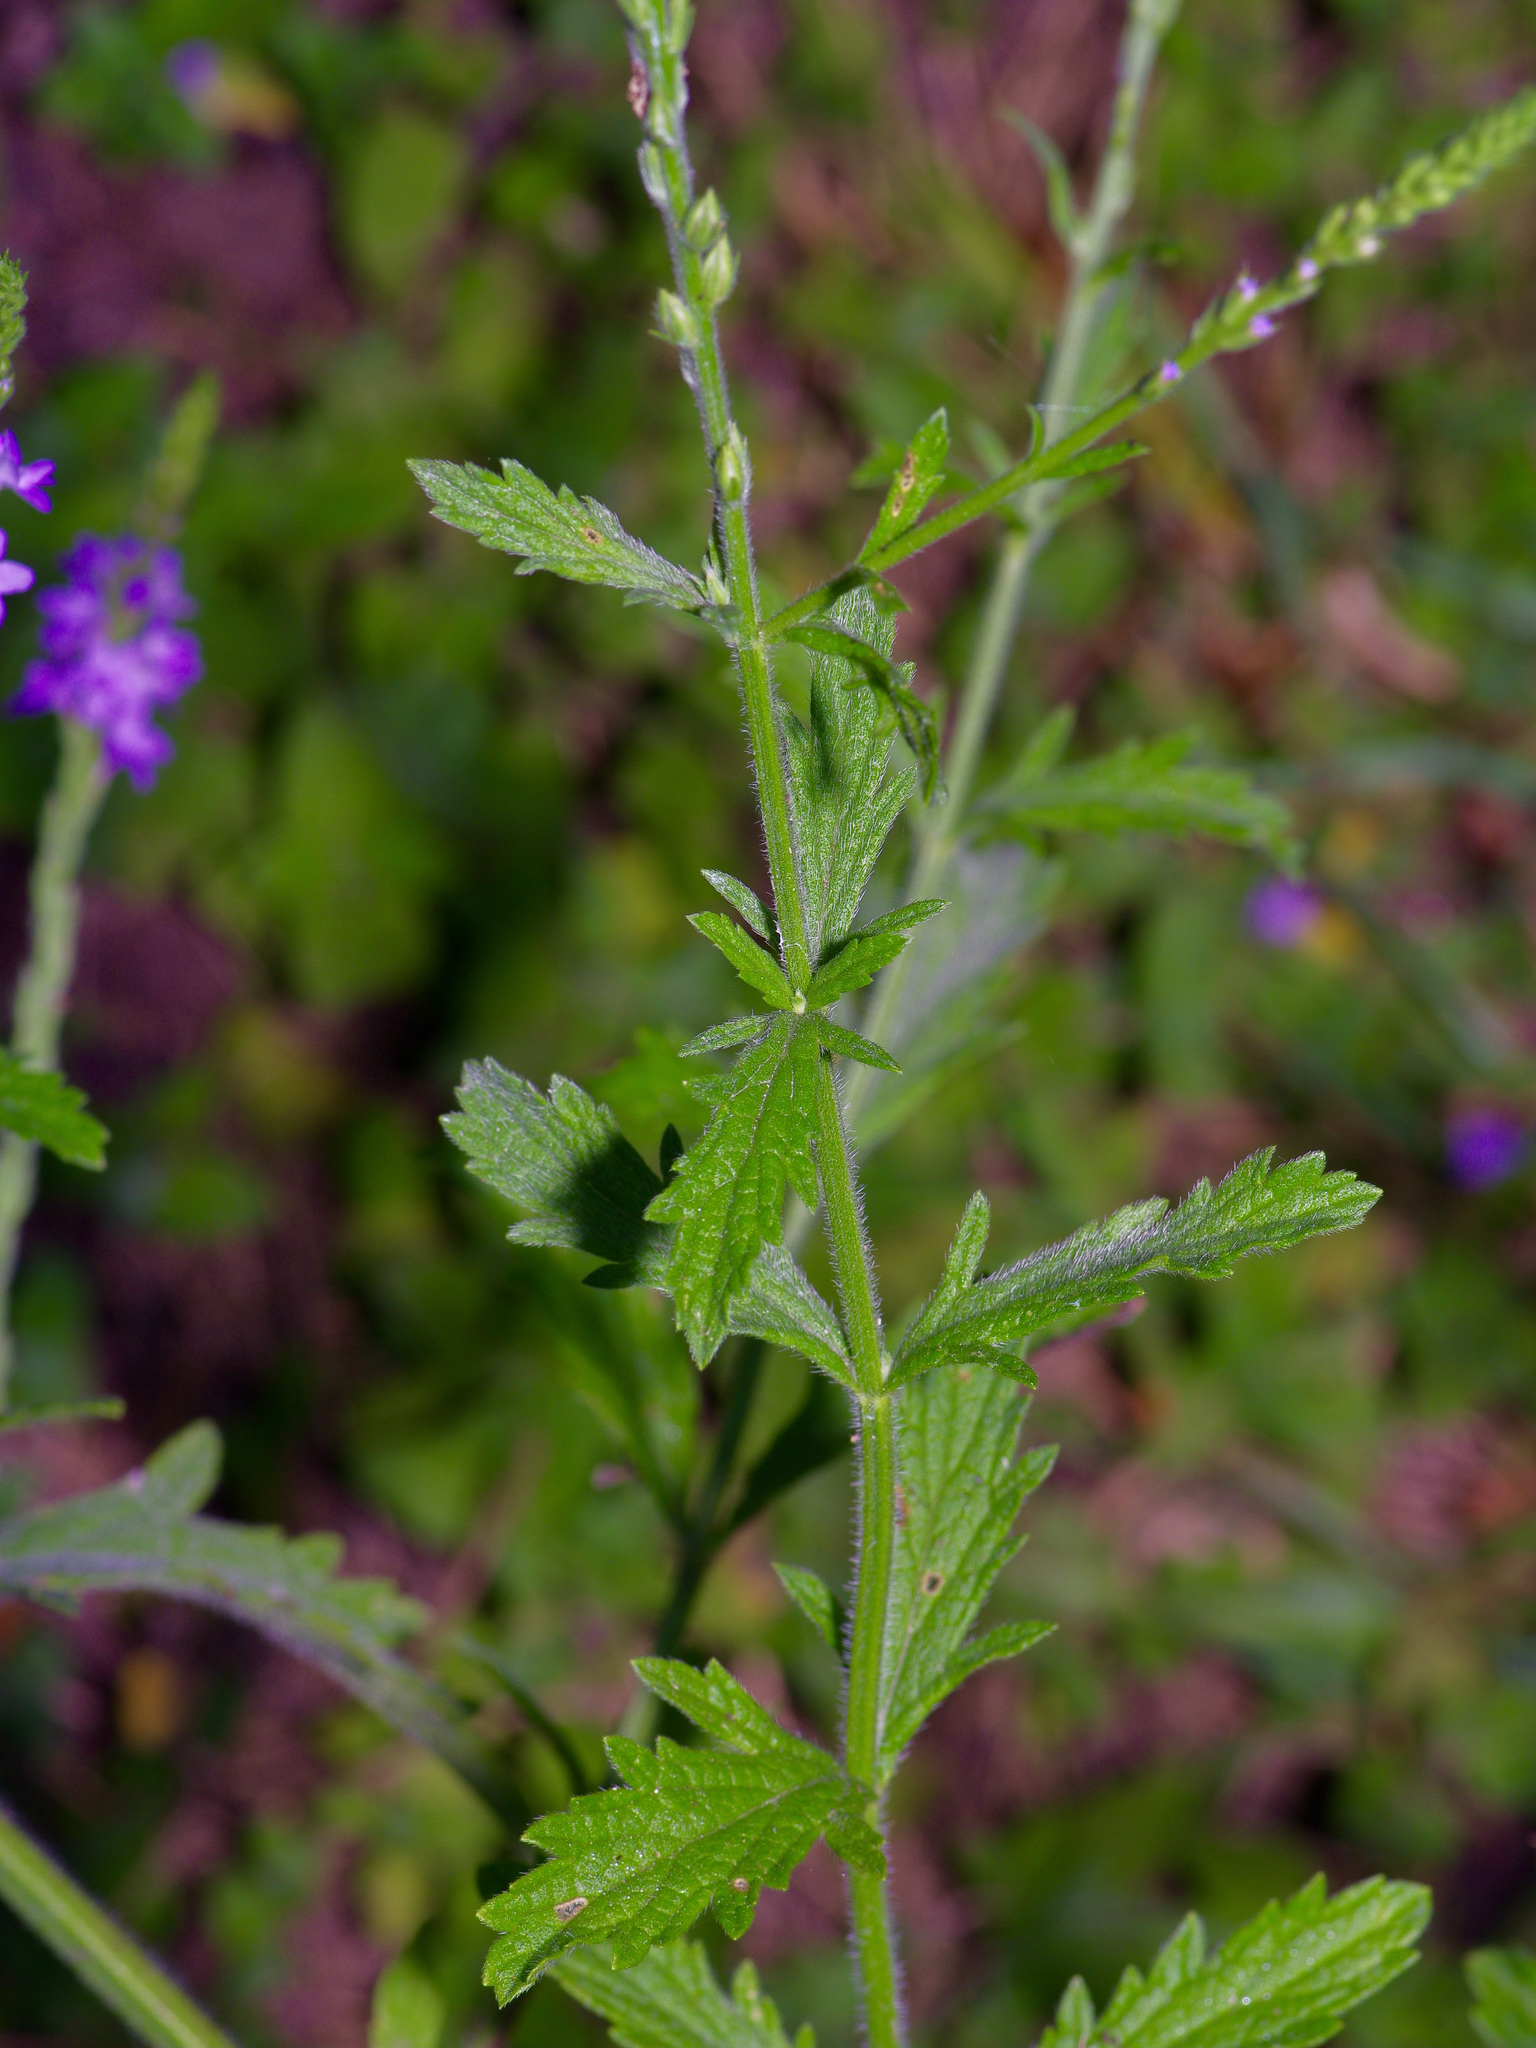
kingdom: Plantae
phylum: Tracheophyta
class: Magnoliopsida
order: Lamiales
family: Verbenaceae
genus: Verbena
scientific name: Verbena xutha
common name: Gulf vervain
